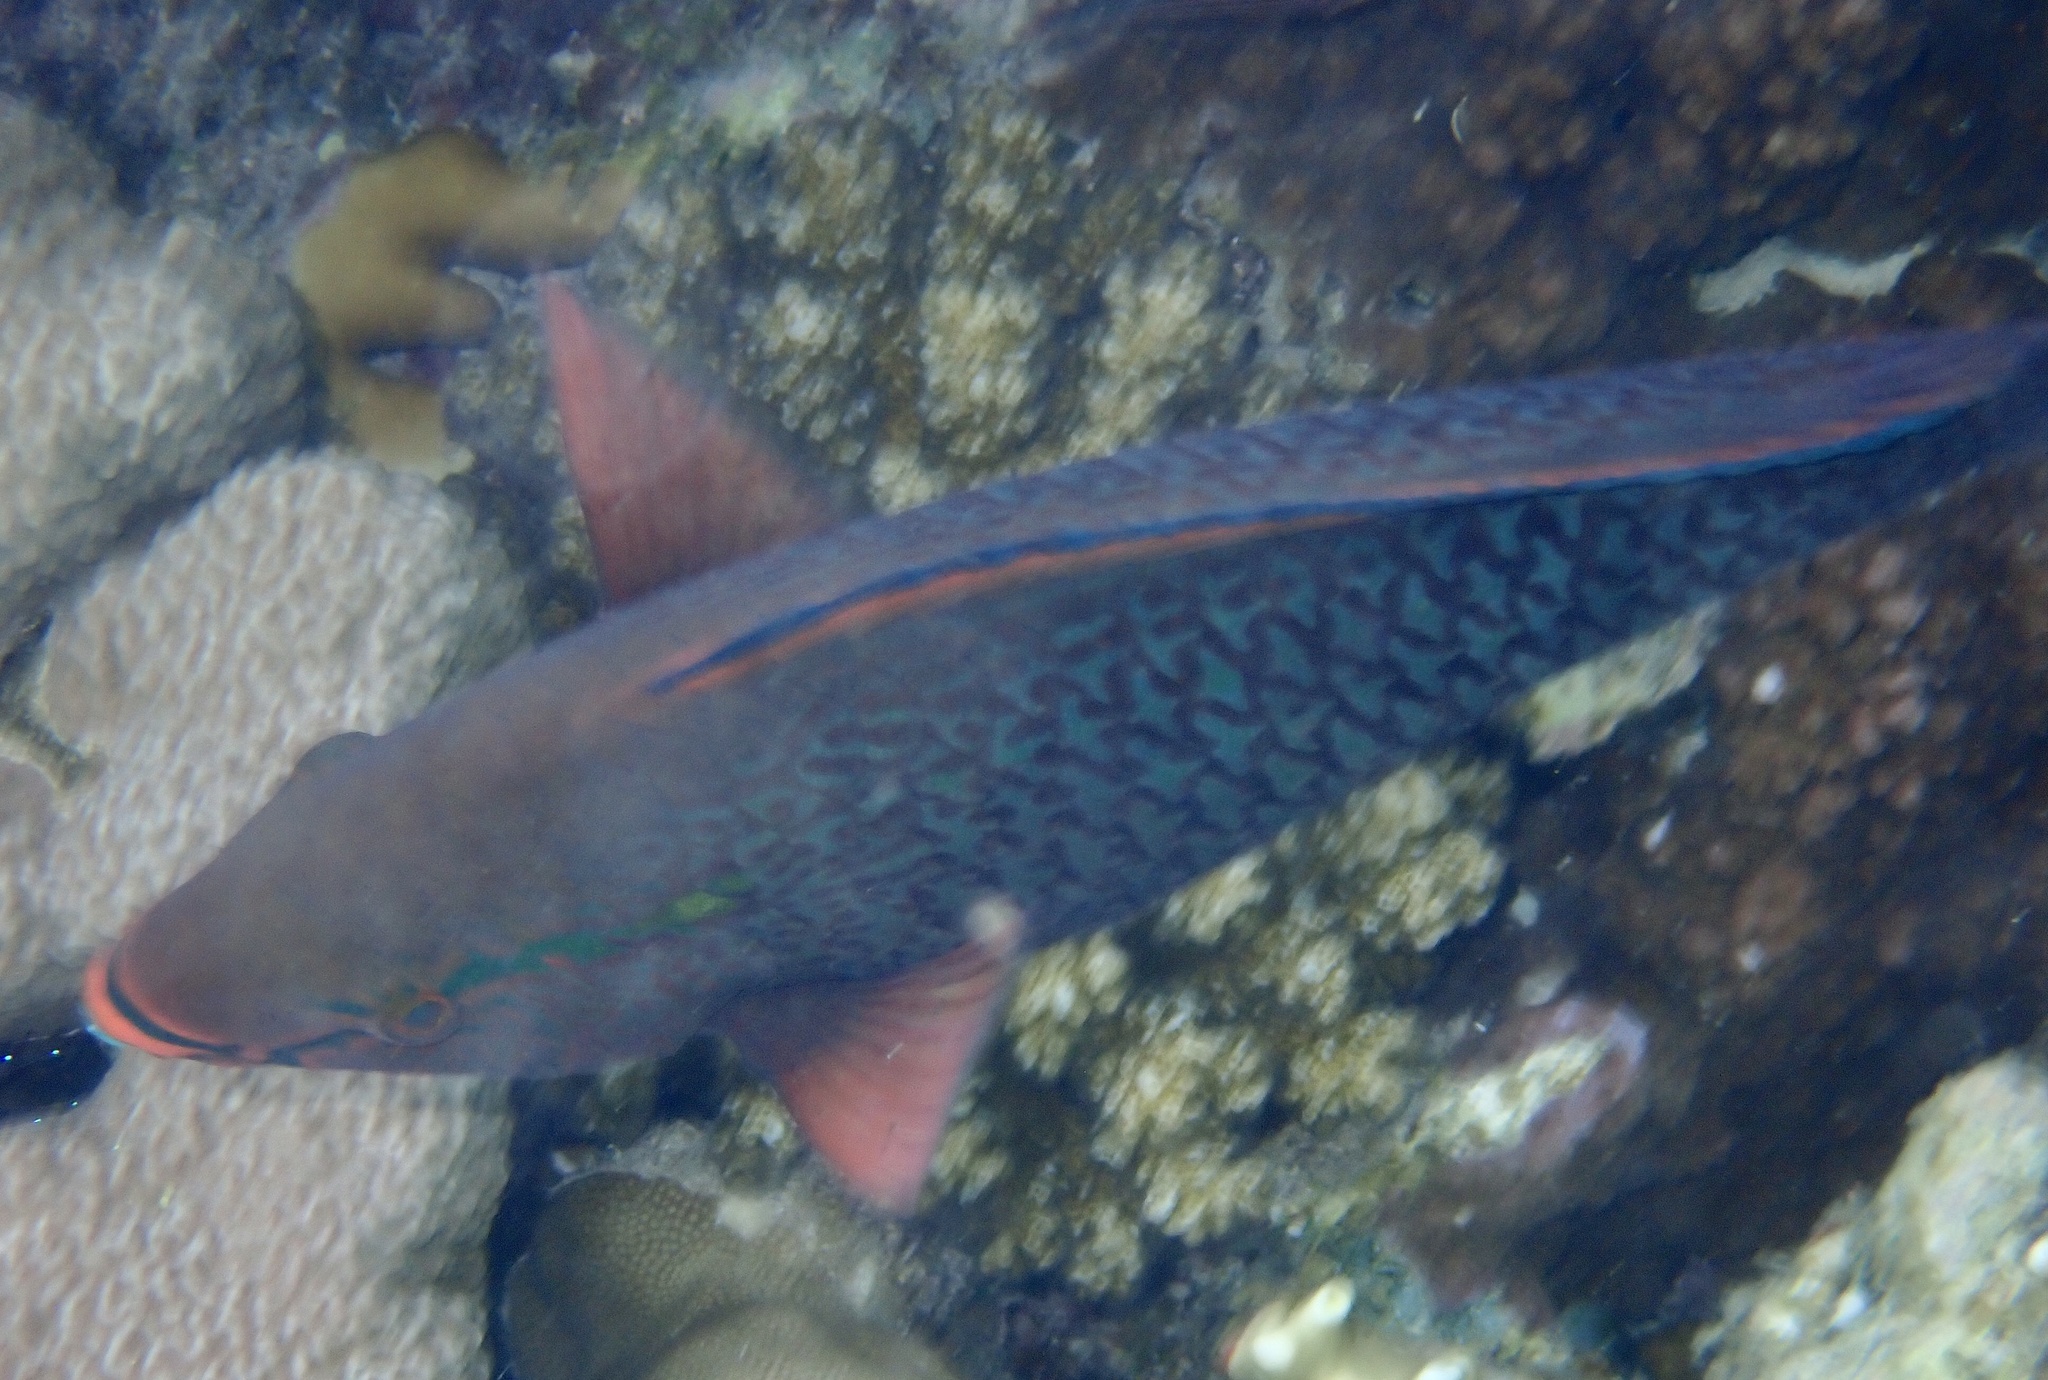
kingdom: Animalia
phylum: Chordata
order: Perciformes
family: Scaridae
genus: Scarus
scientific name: Scarus niger
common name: Dusky parrotfish
